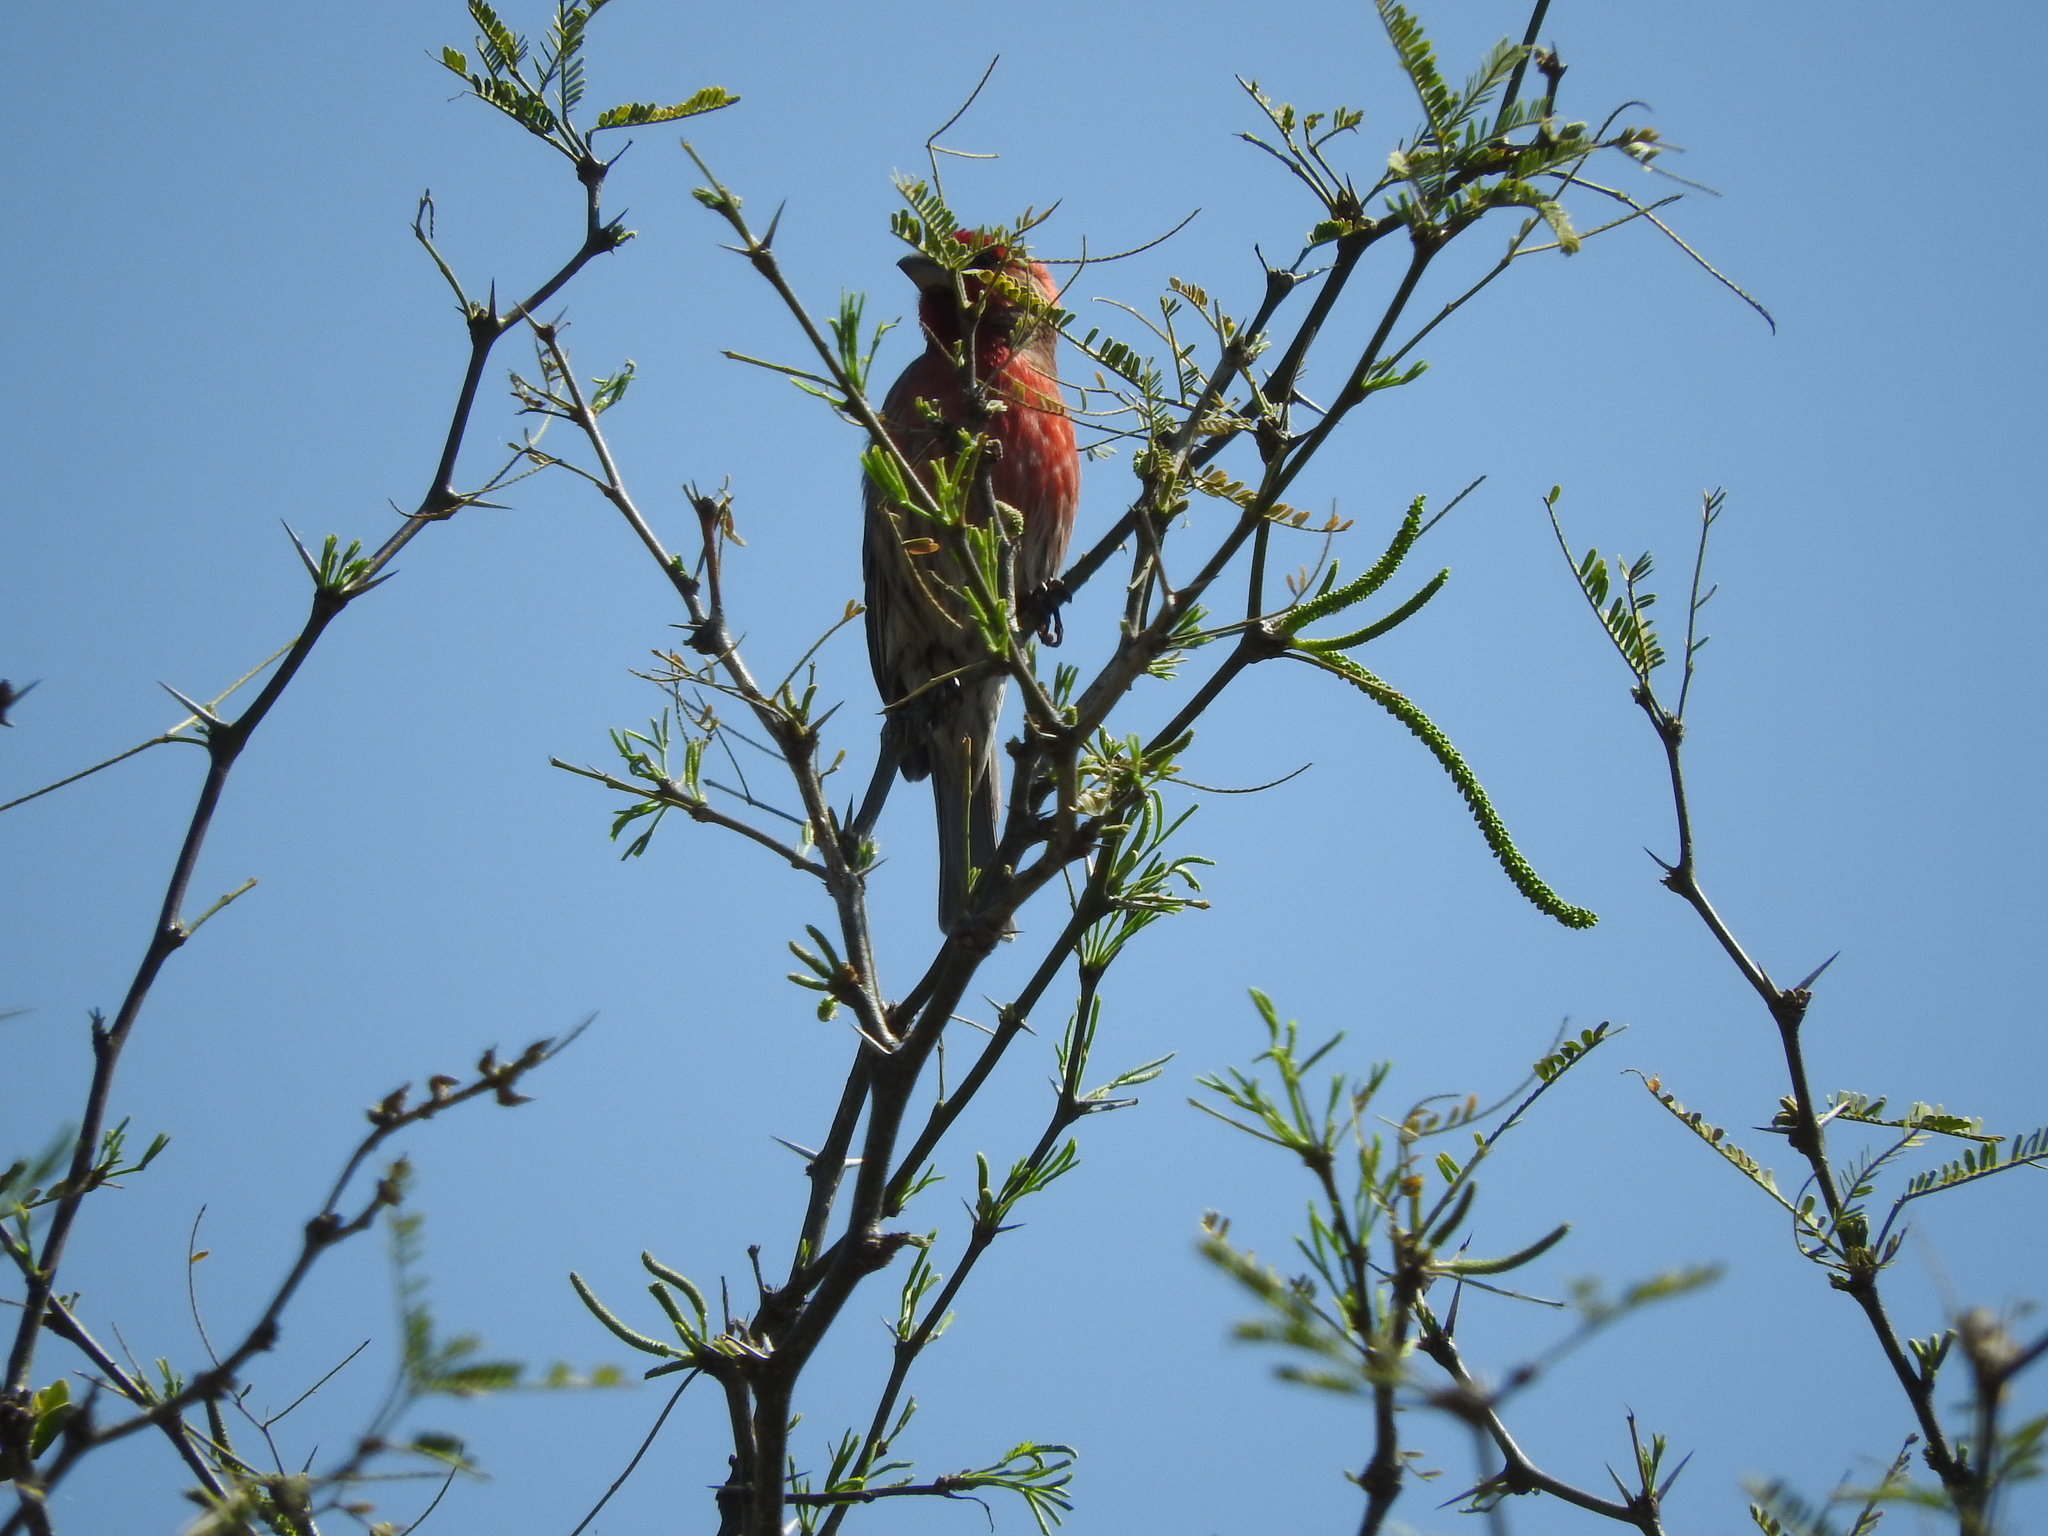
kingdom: Animalia
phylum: Chordata
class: Aves
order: Passeriformes
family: Fringillidae
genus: Haemorhous
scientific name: Haemorhous mexicanus
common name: House finch
